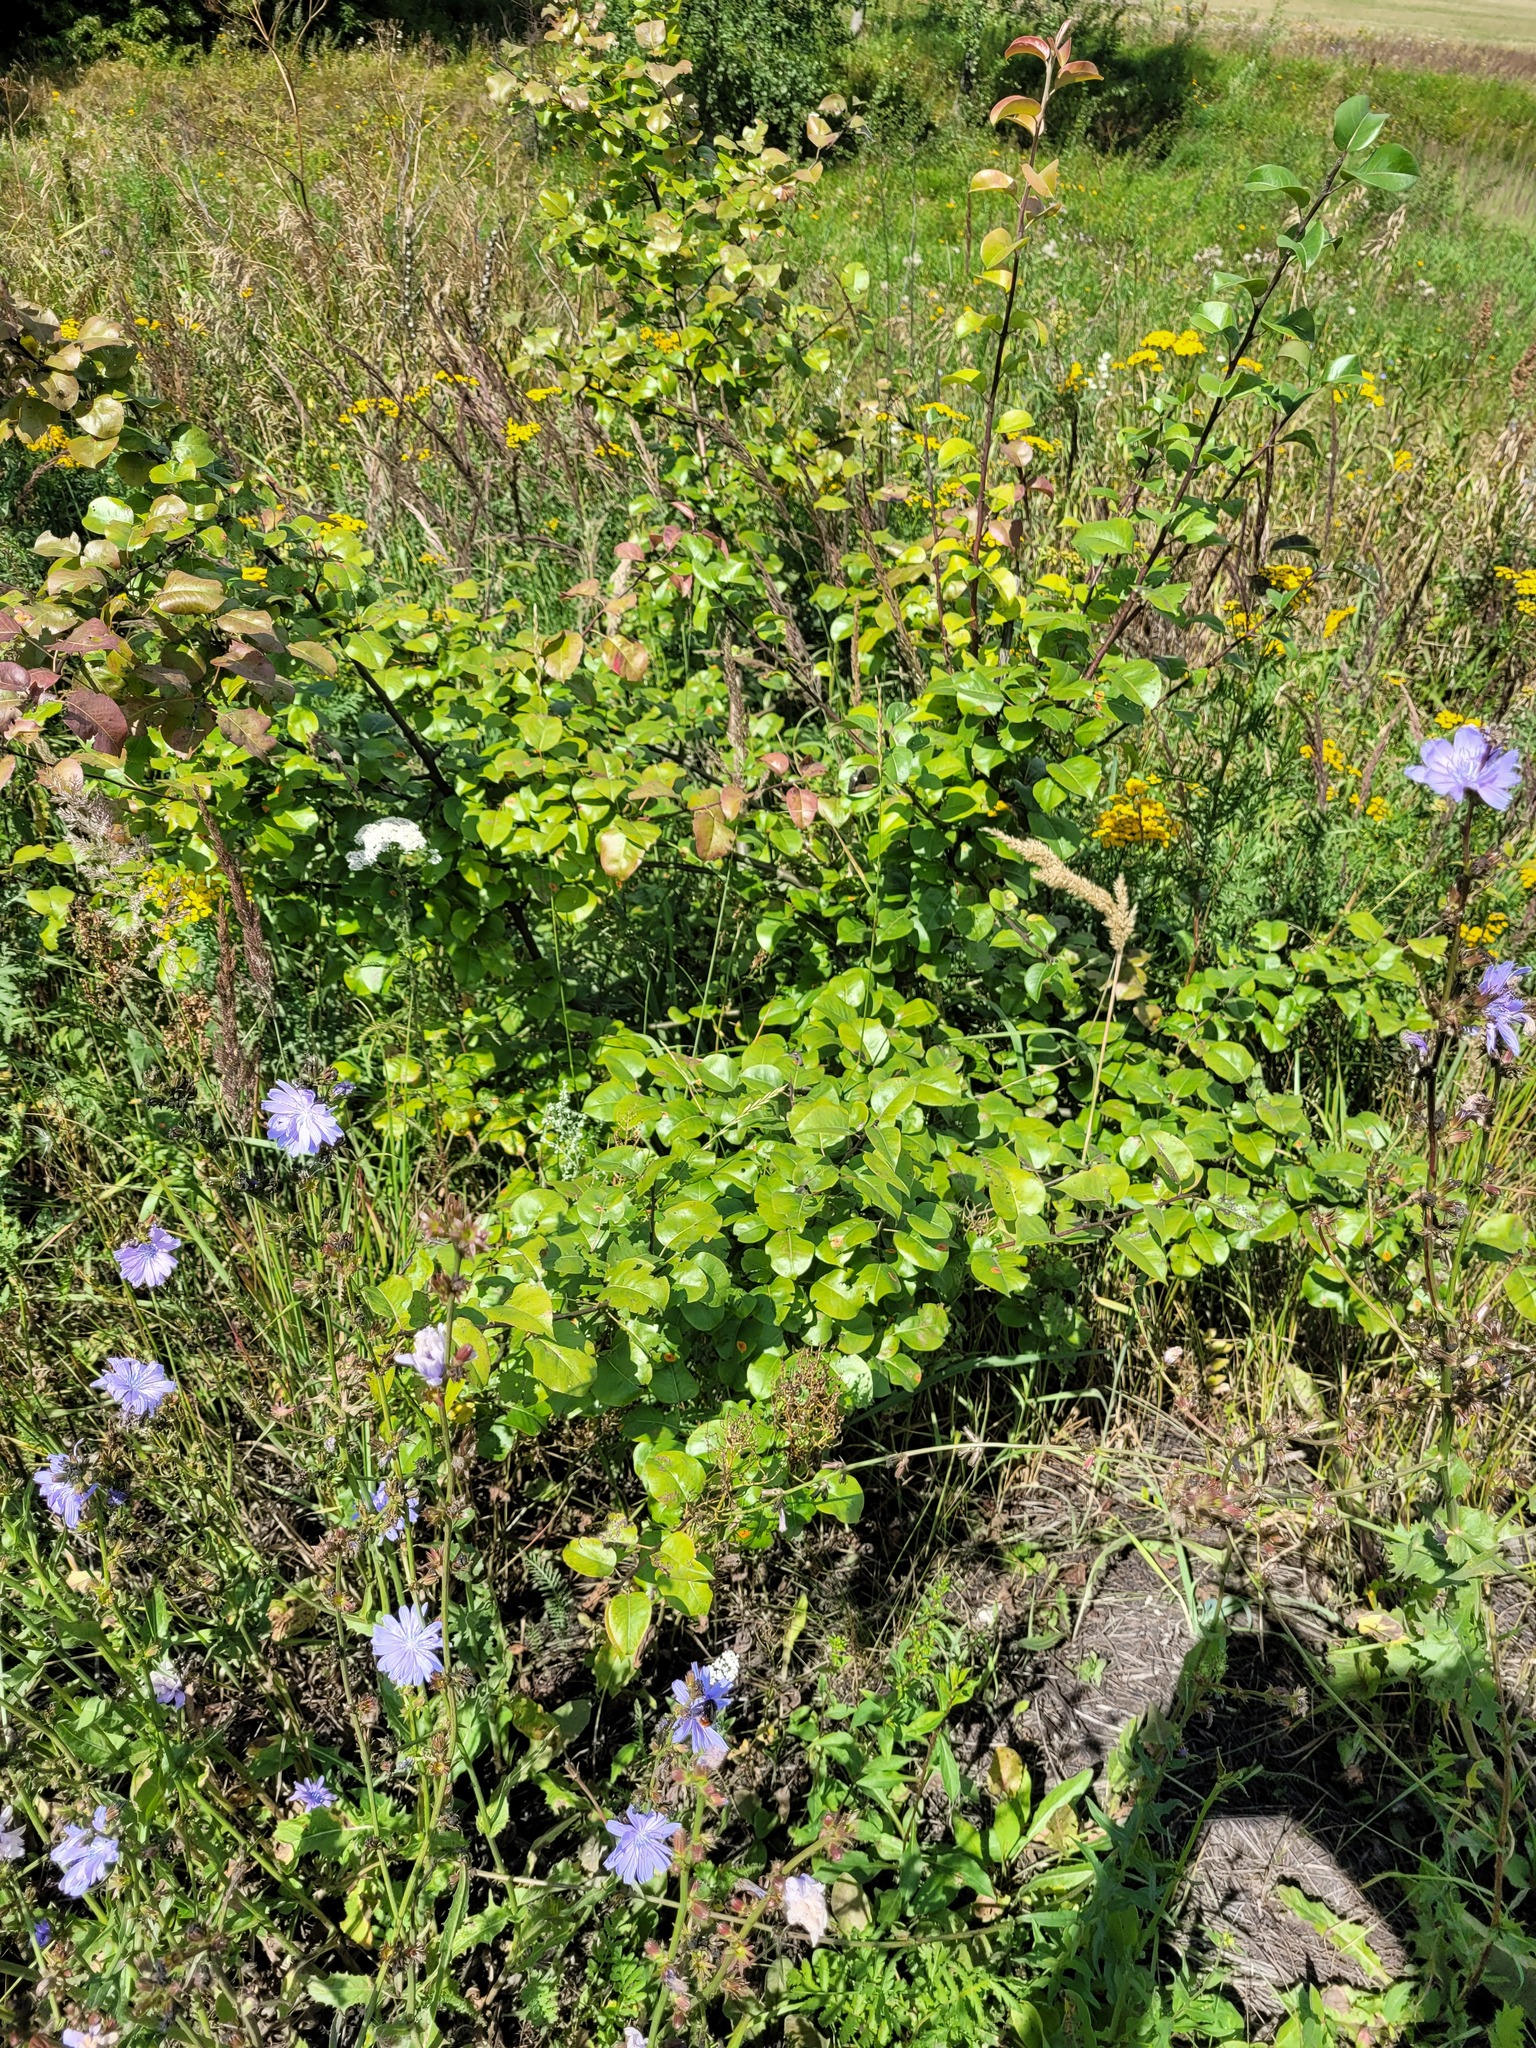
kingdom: Plantae
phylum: Tracheophyta
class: Magnoliopsida
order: Rosales
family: Rosaceae
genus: Pyrus
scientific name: Pyrus communis
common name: Pear
